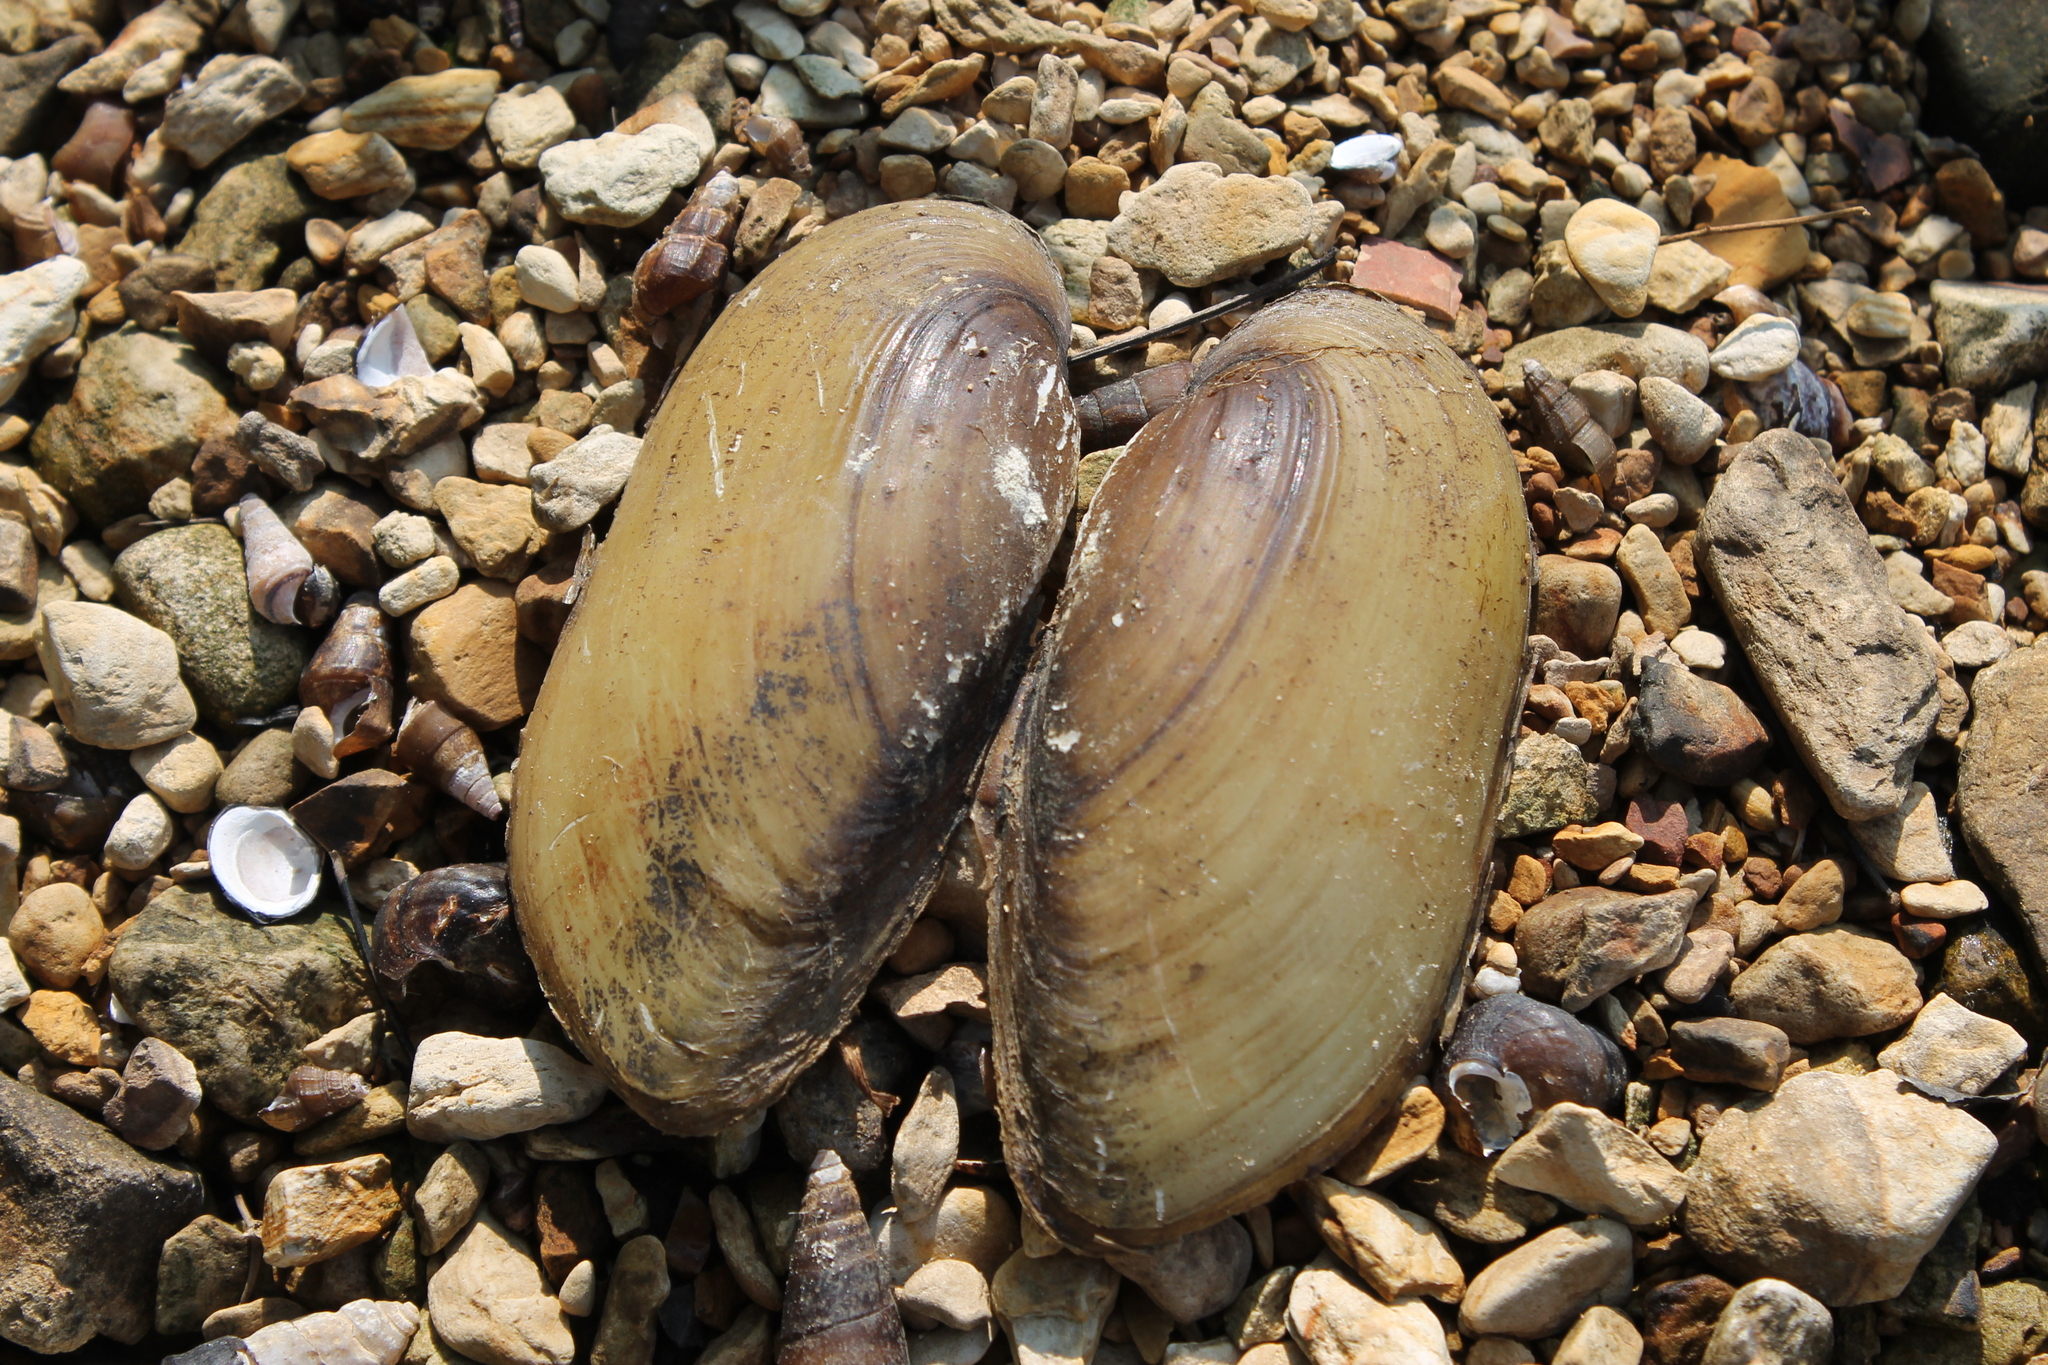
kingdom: Animalia
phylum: Mollusca
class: Bivalvia
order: Unionida
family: Unionidae
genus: Lampsilis
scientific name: Lampsilis teres
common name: Yellow sandshell
